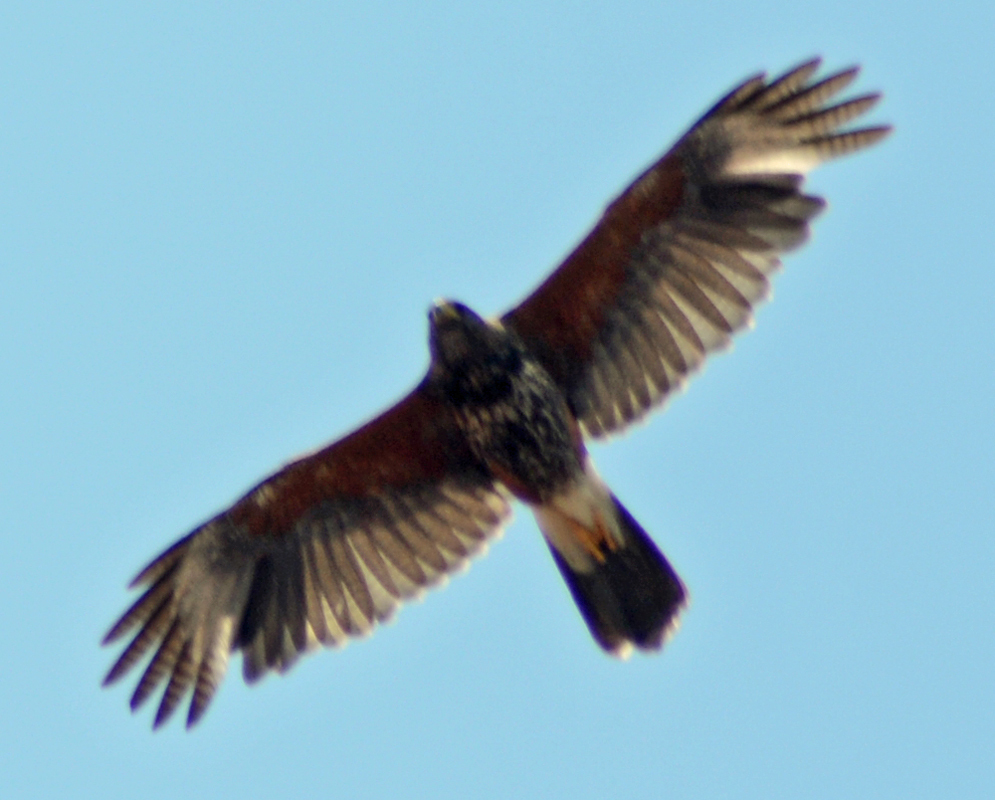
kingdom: Animalia
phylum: Chordata
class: Aves
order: Accipitriformes
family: Accipitridae
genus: Parabuteo
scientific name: Parabuteo unicinctus
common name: Harris's hawk
